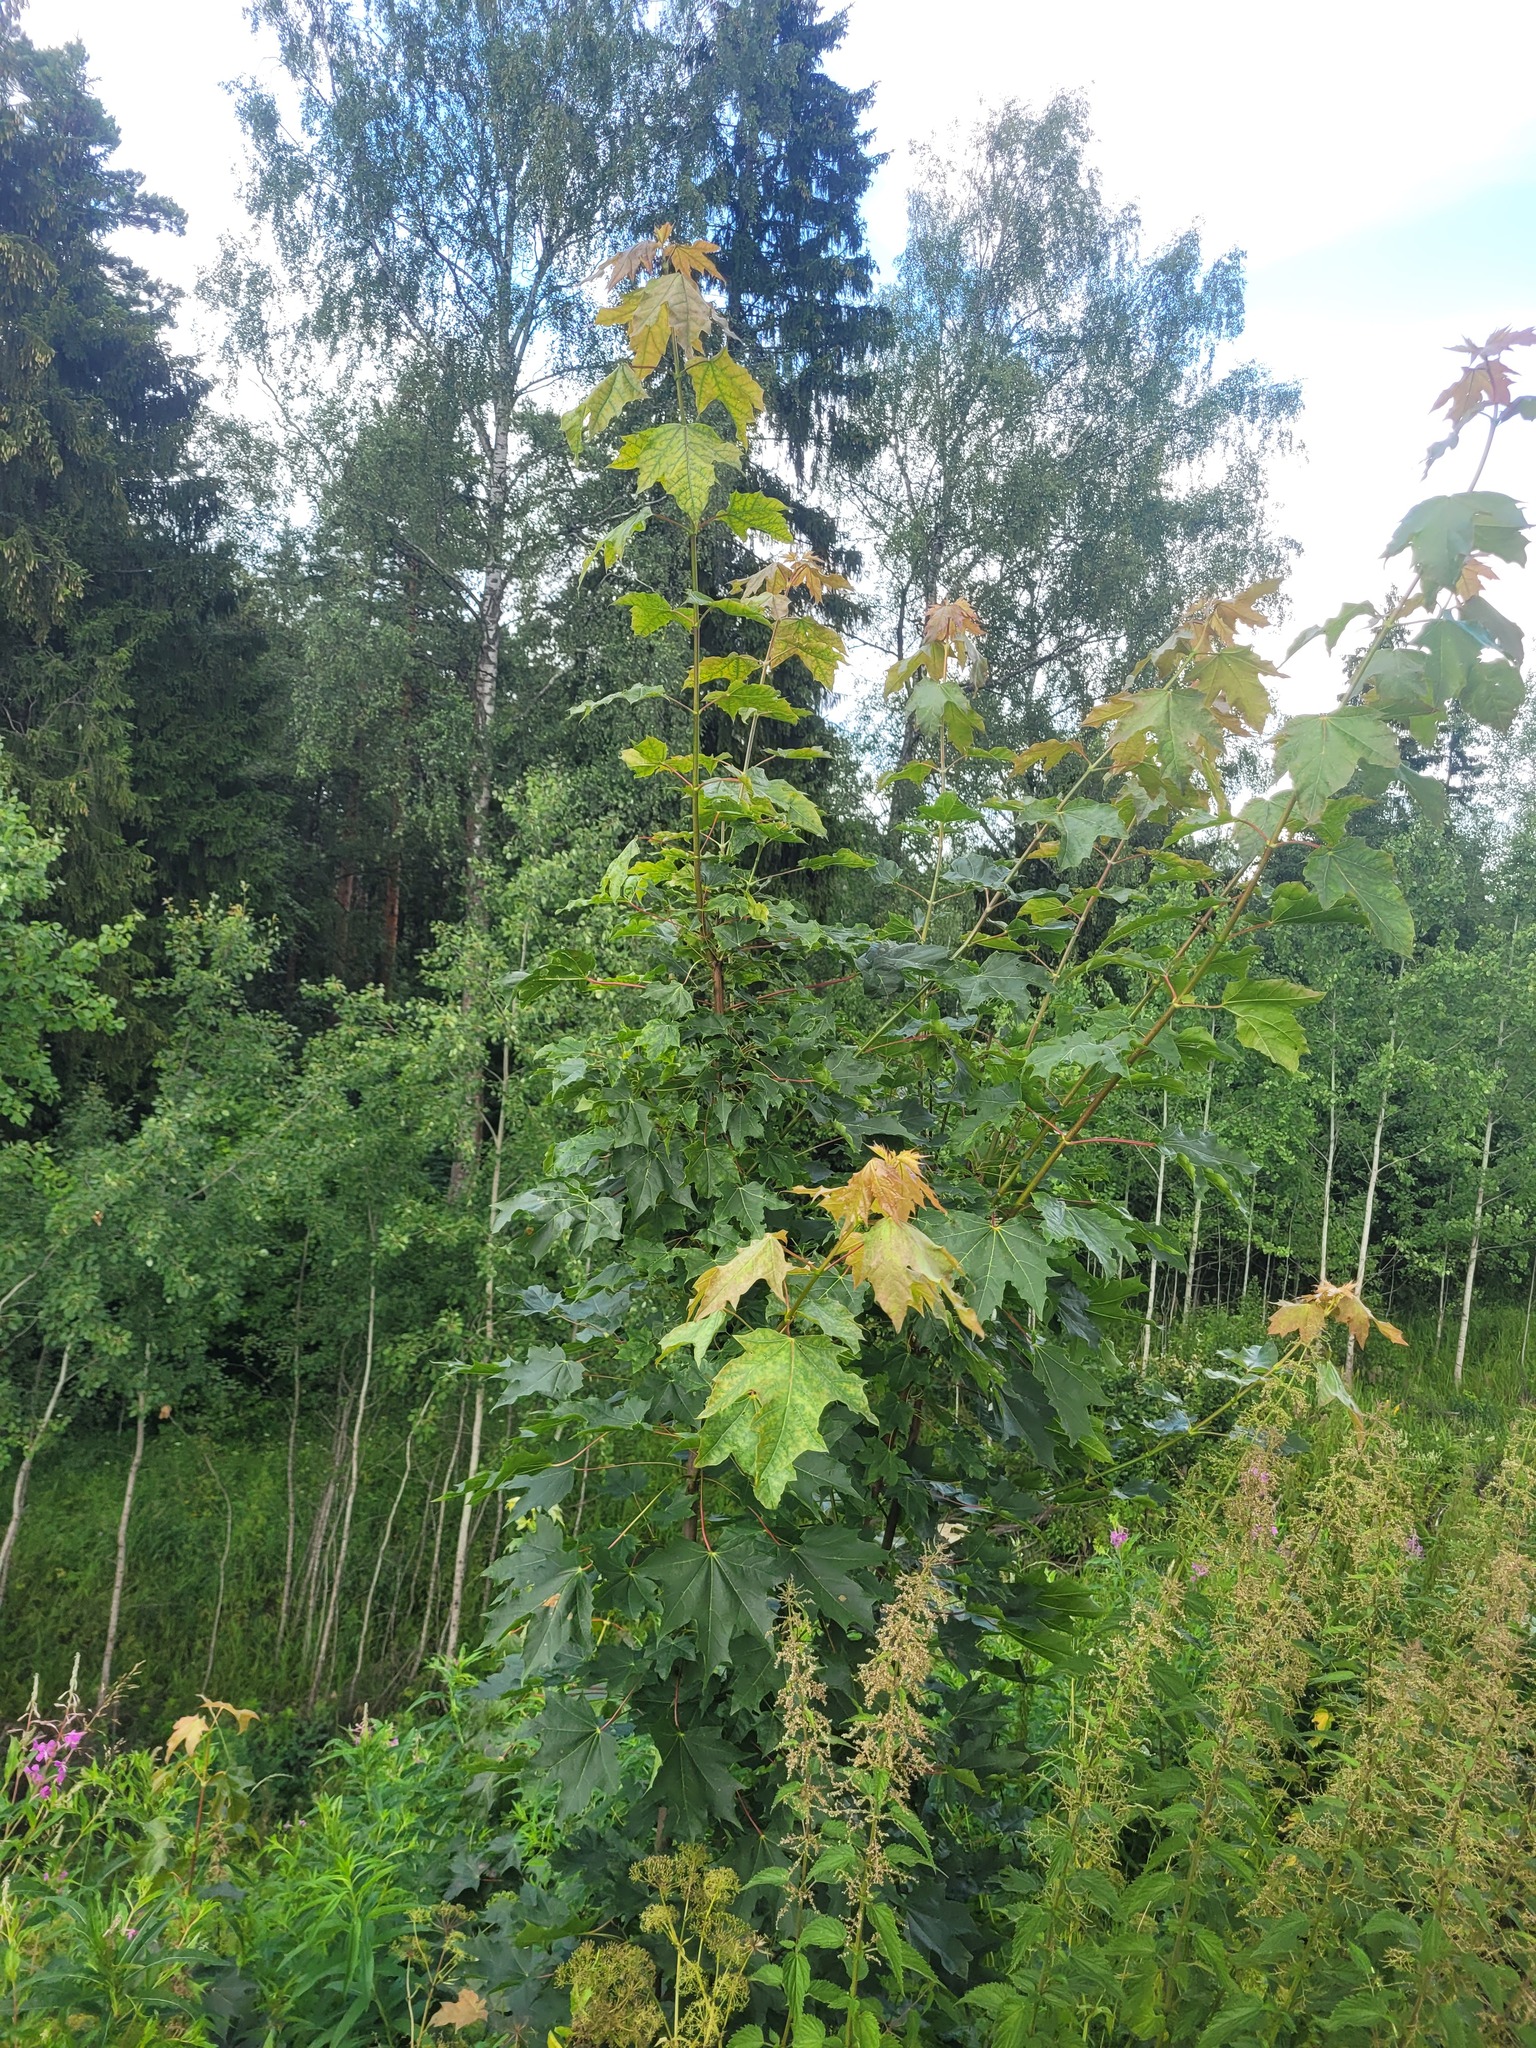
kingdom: Plantae
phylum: Tracheophyta
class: Magnoliopsida
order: Sapindales
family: Sapindaceae
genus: Acer
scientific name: Acer platanoides
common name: Norway maple
